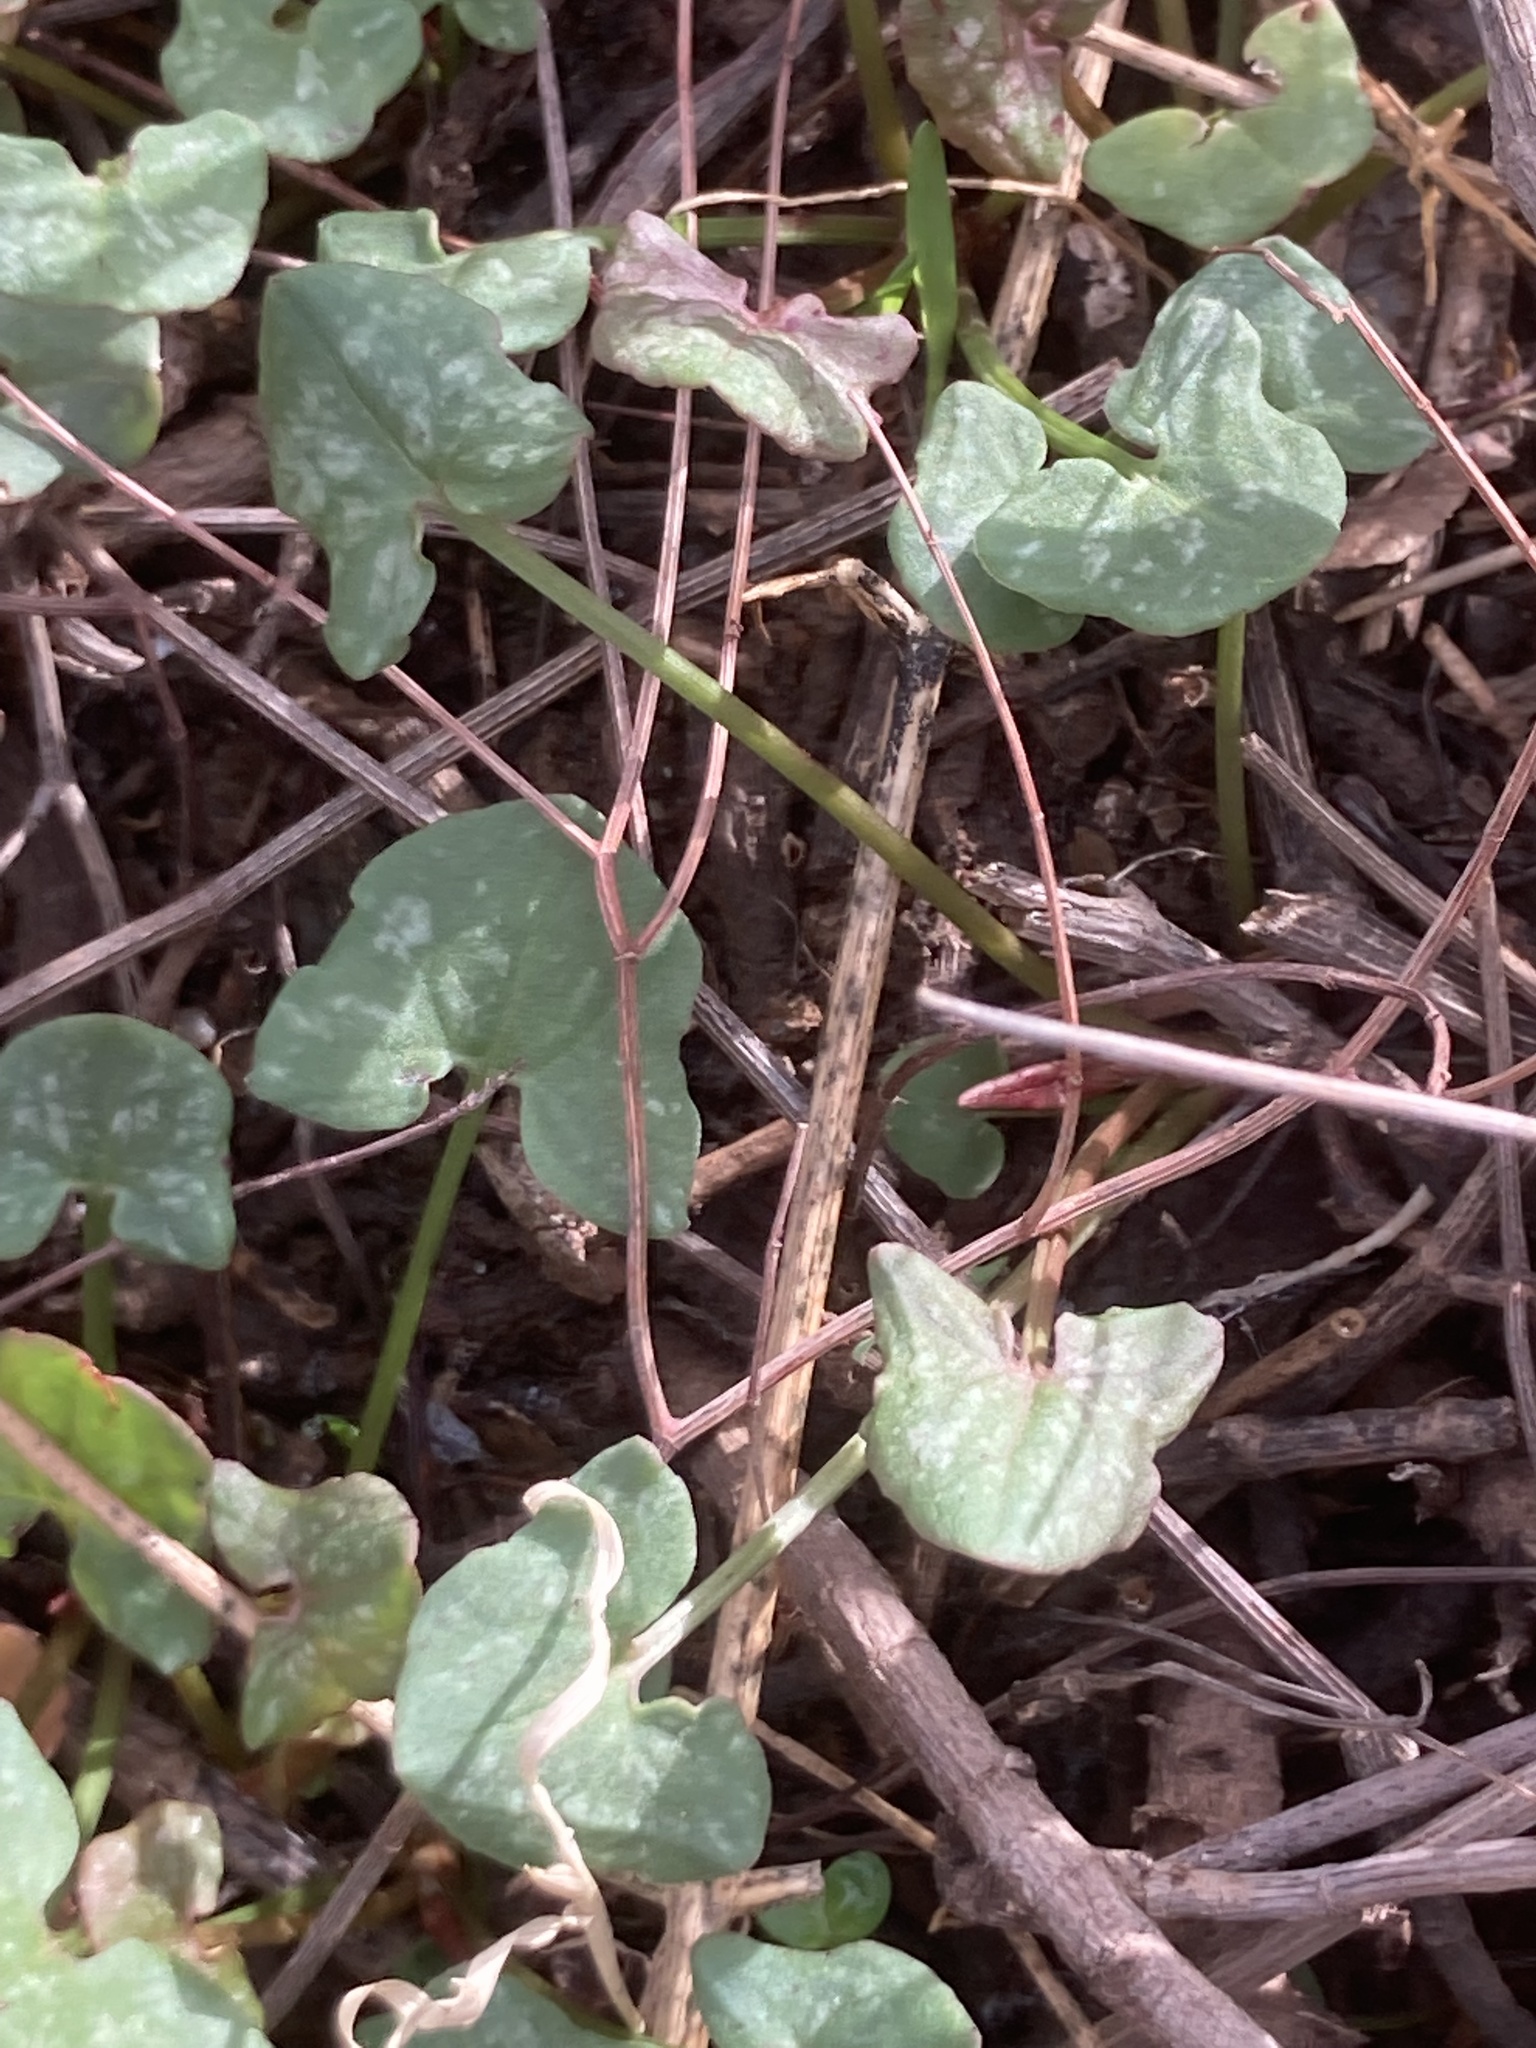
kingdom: Plantae
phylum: Tracheophyta
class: Magnoliopsida
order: Caryophyllales
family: Polygonaceae
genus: Rumex
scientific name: Rumex scutatus
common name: French sorrel
